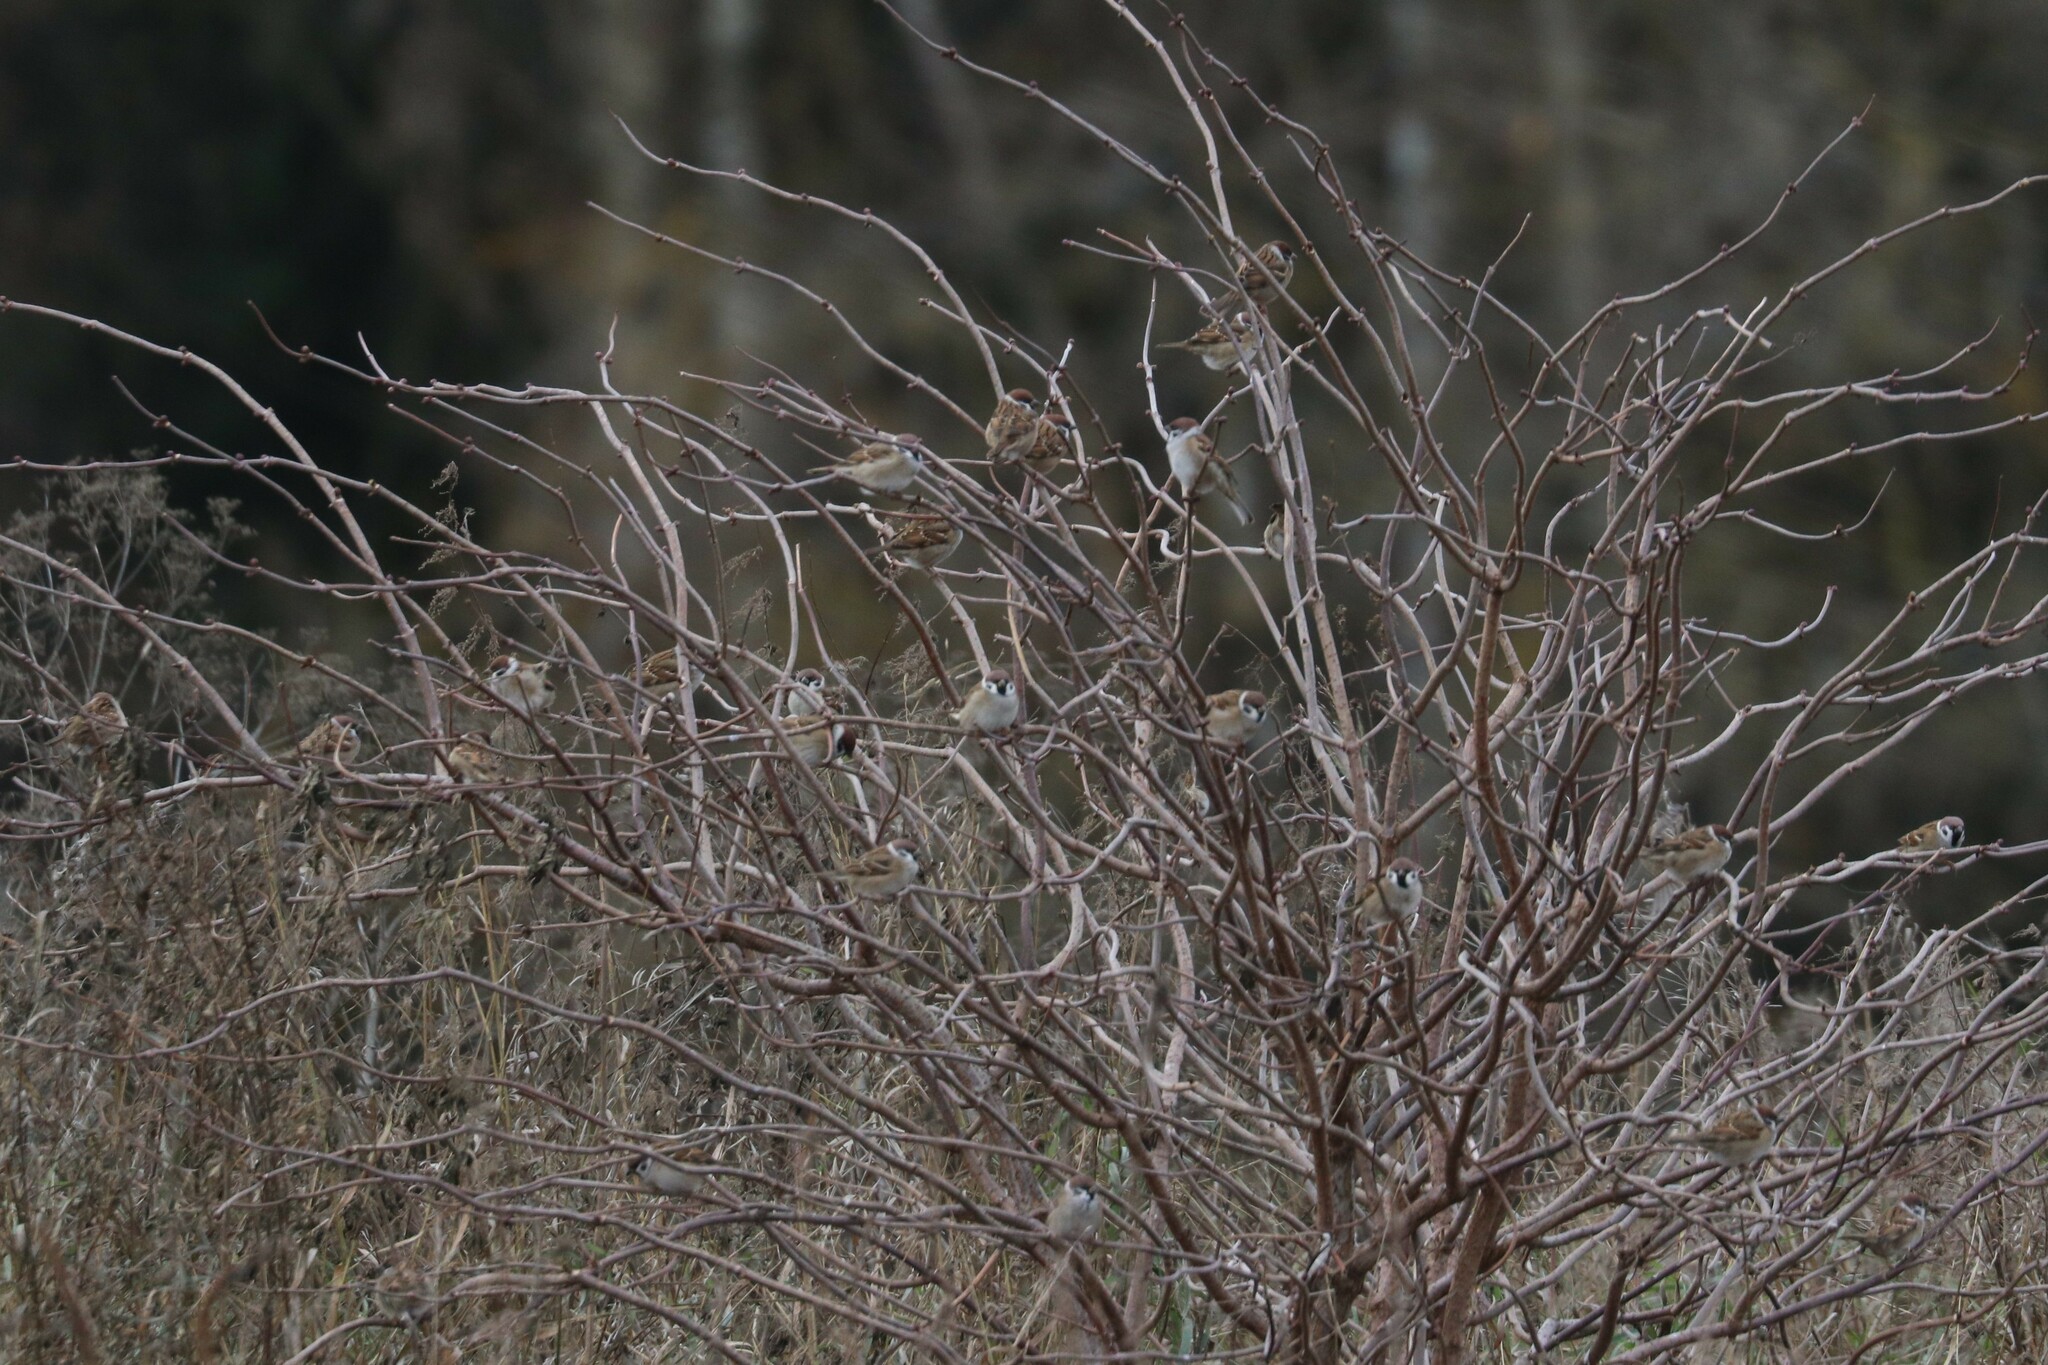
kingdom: Animalia
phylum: Chordata
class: Aves
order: Passeriformes
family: Passeridae
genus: Passer
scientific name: Passer montanus
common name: Eurasian tree sparrow
